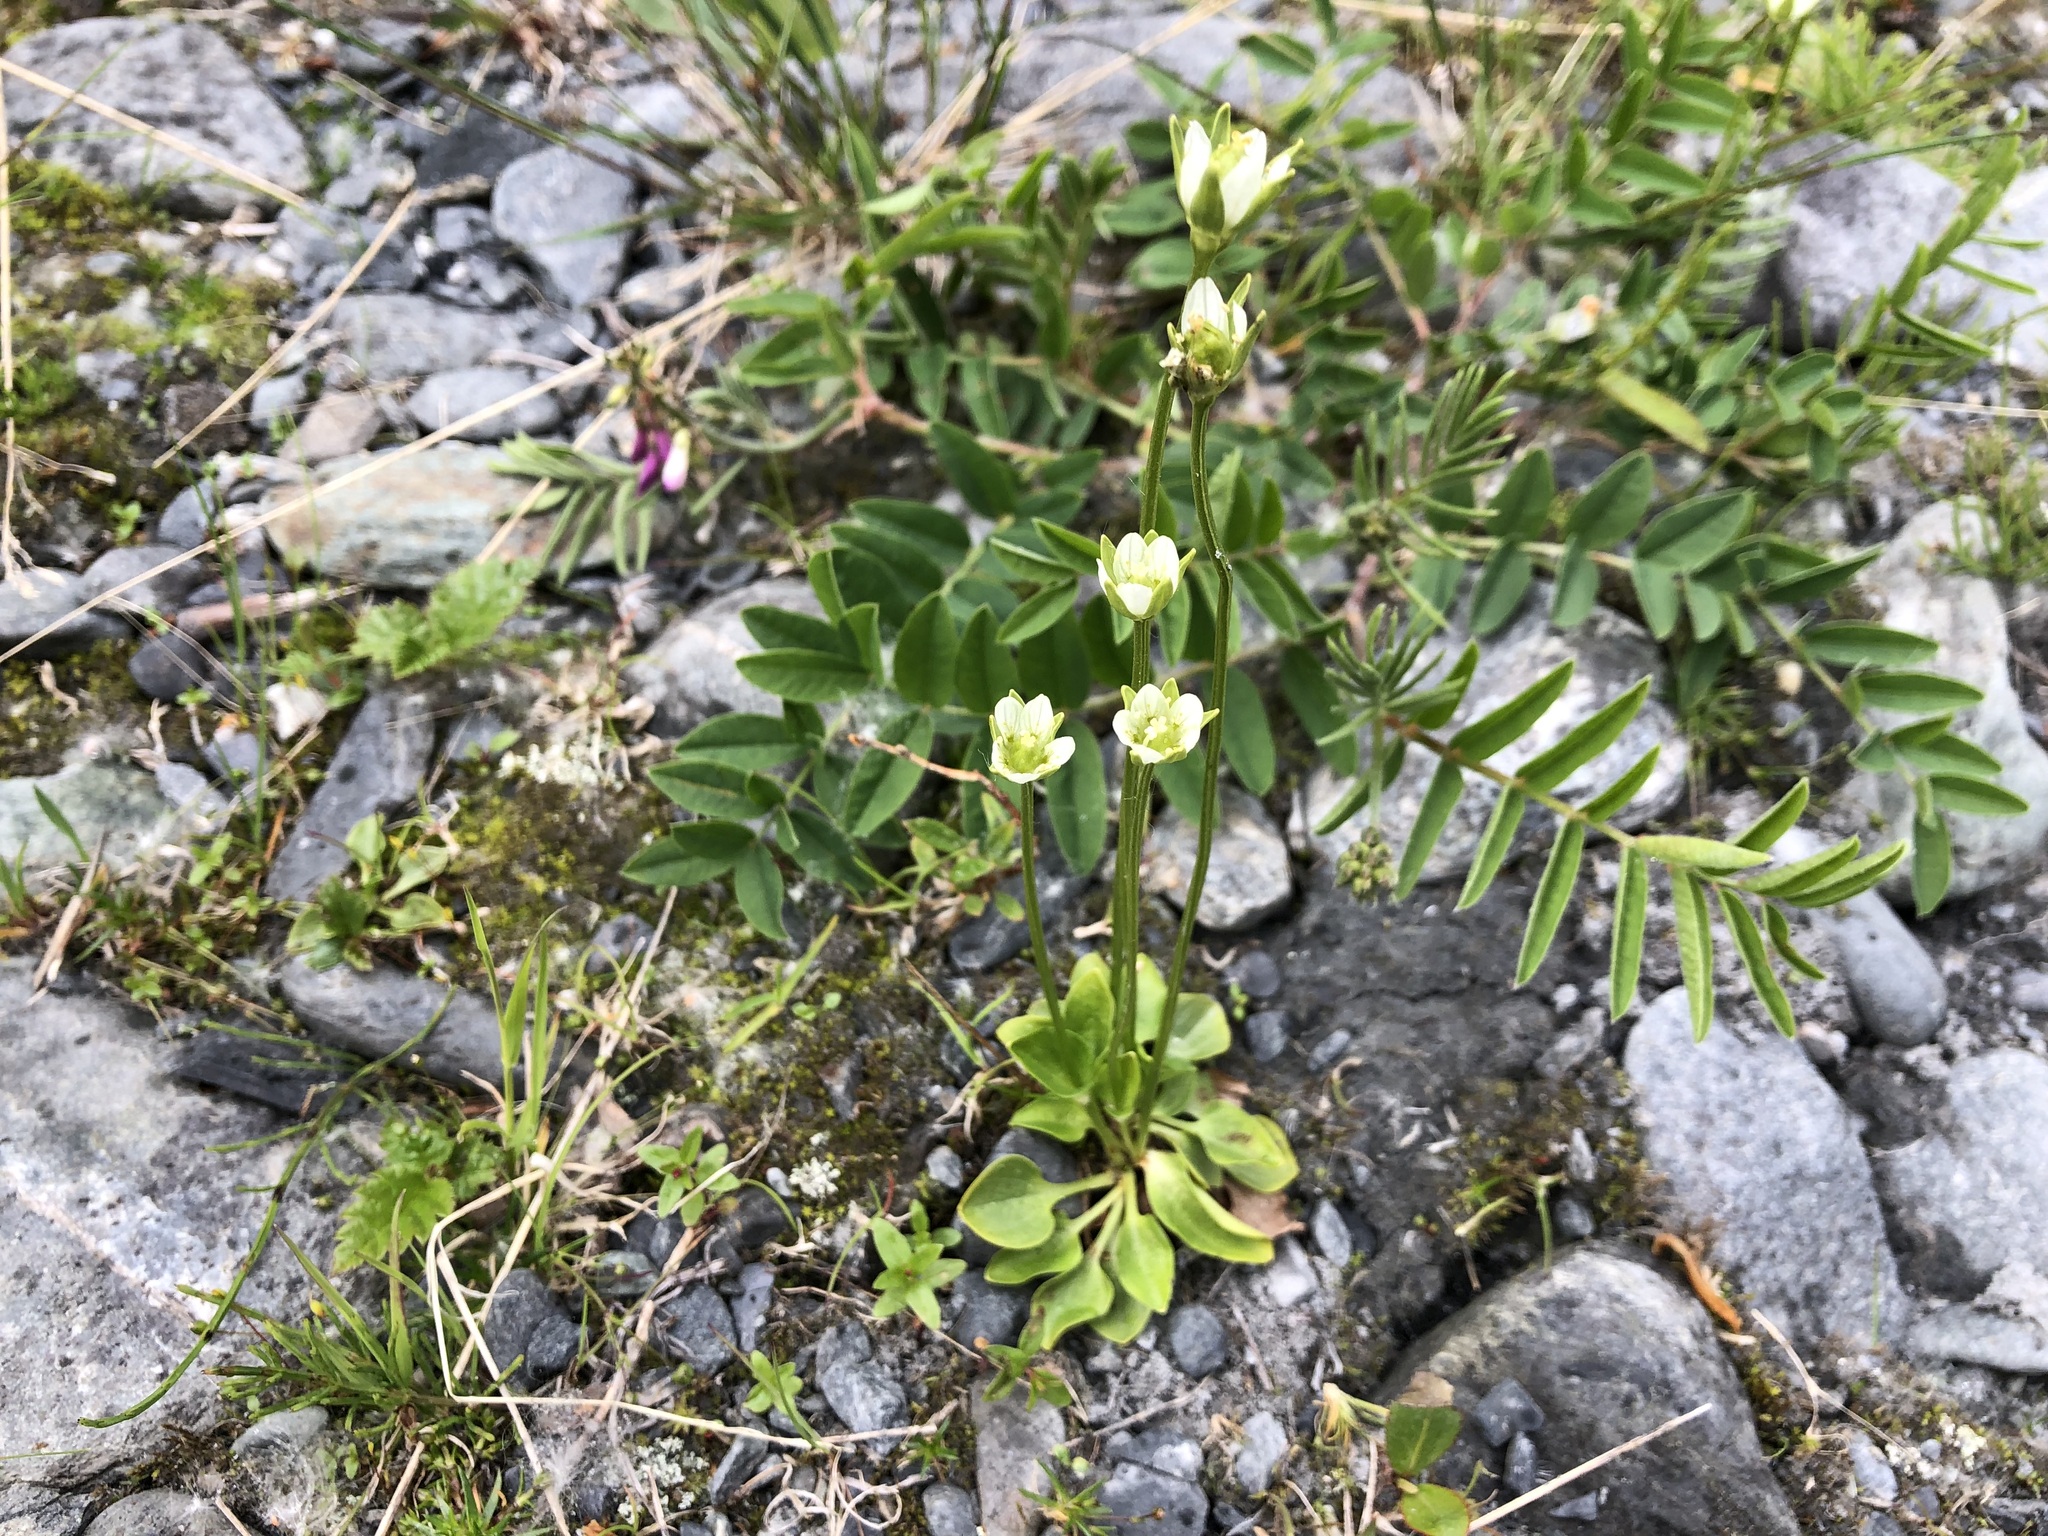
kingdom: Plantae
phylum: Tracheophyta
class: Magnoliopsida
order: Celastrales
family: Parnassiaceae
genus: Parnassia
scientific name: Parnassia kotzebuei
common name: Kotzebue's grass-of-parnassus
